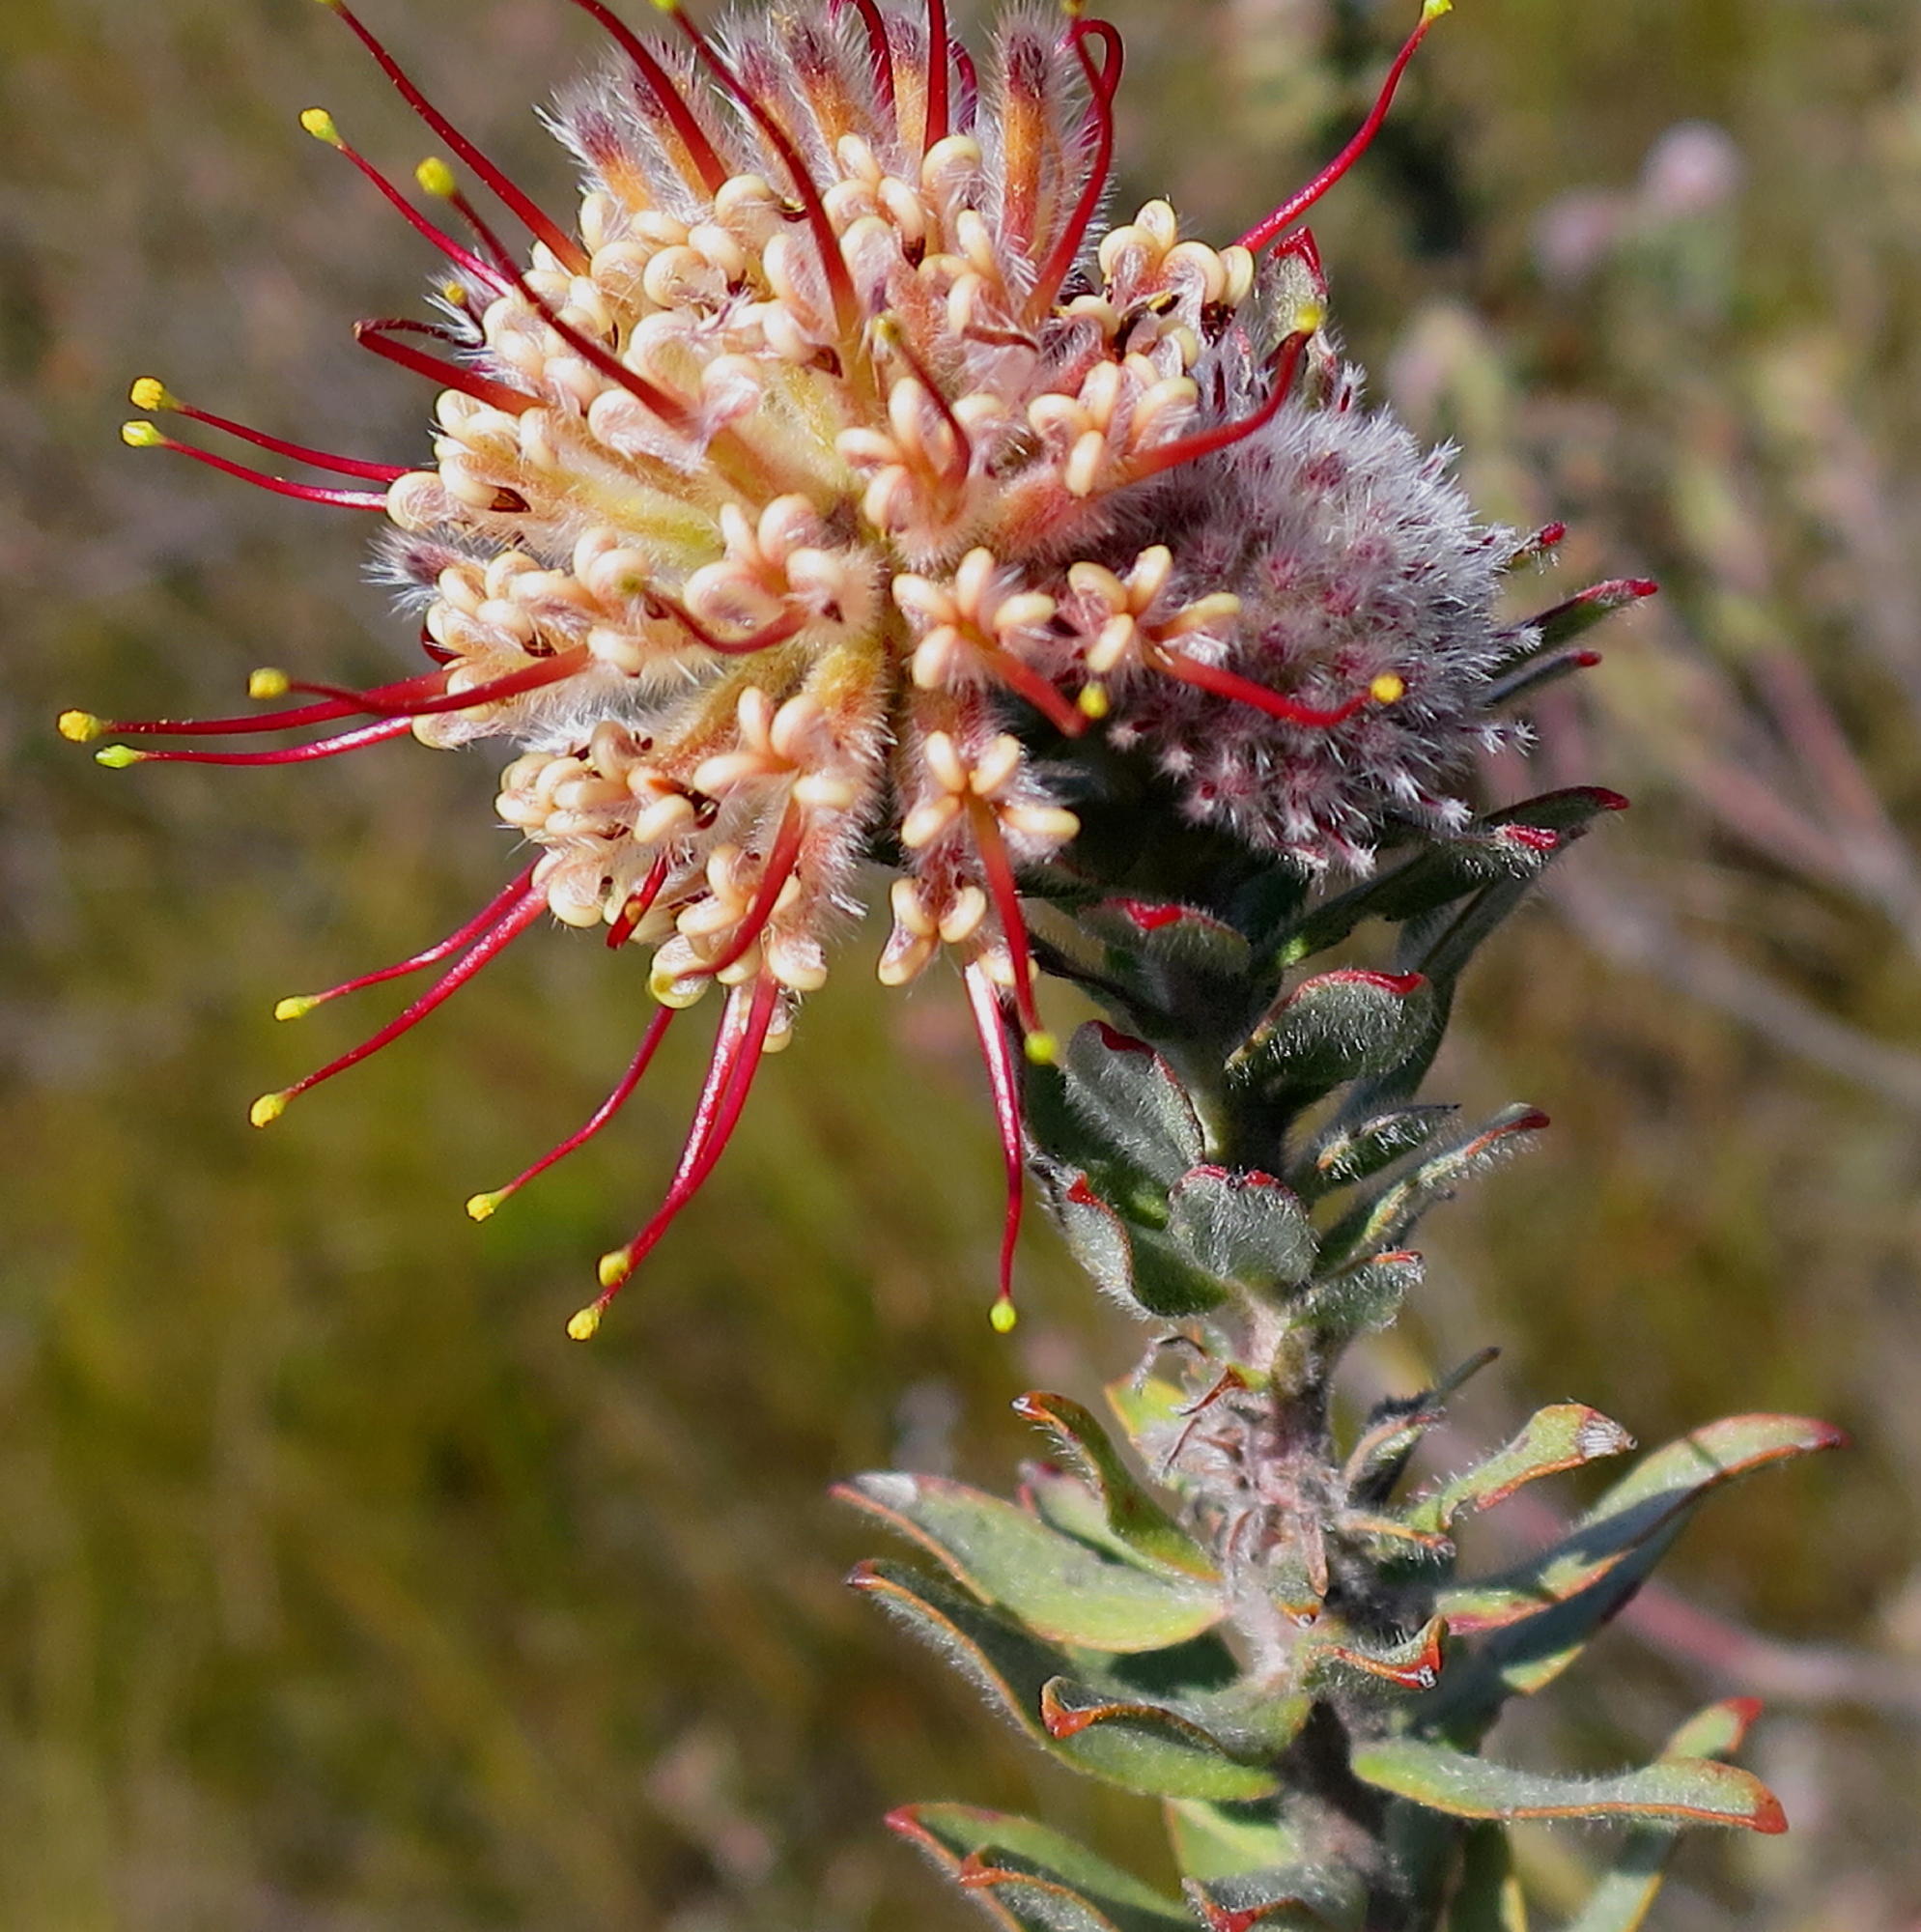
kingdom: Plantae
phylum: Tracheophyta
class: Magnoliopsida
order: Proteales
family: Proteaceae
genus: Leucospermum
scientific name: Leucospermum calligerum
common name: Arid pincushion
